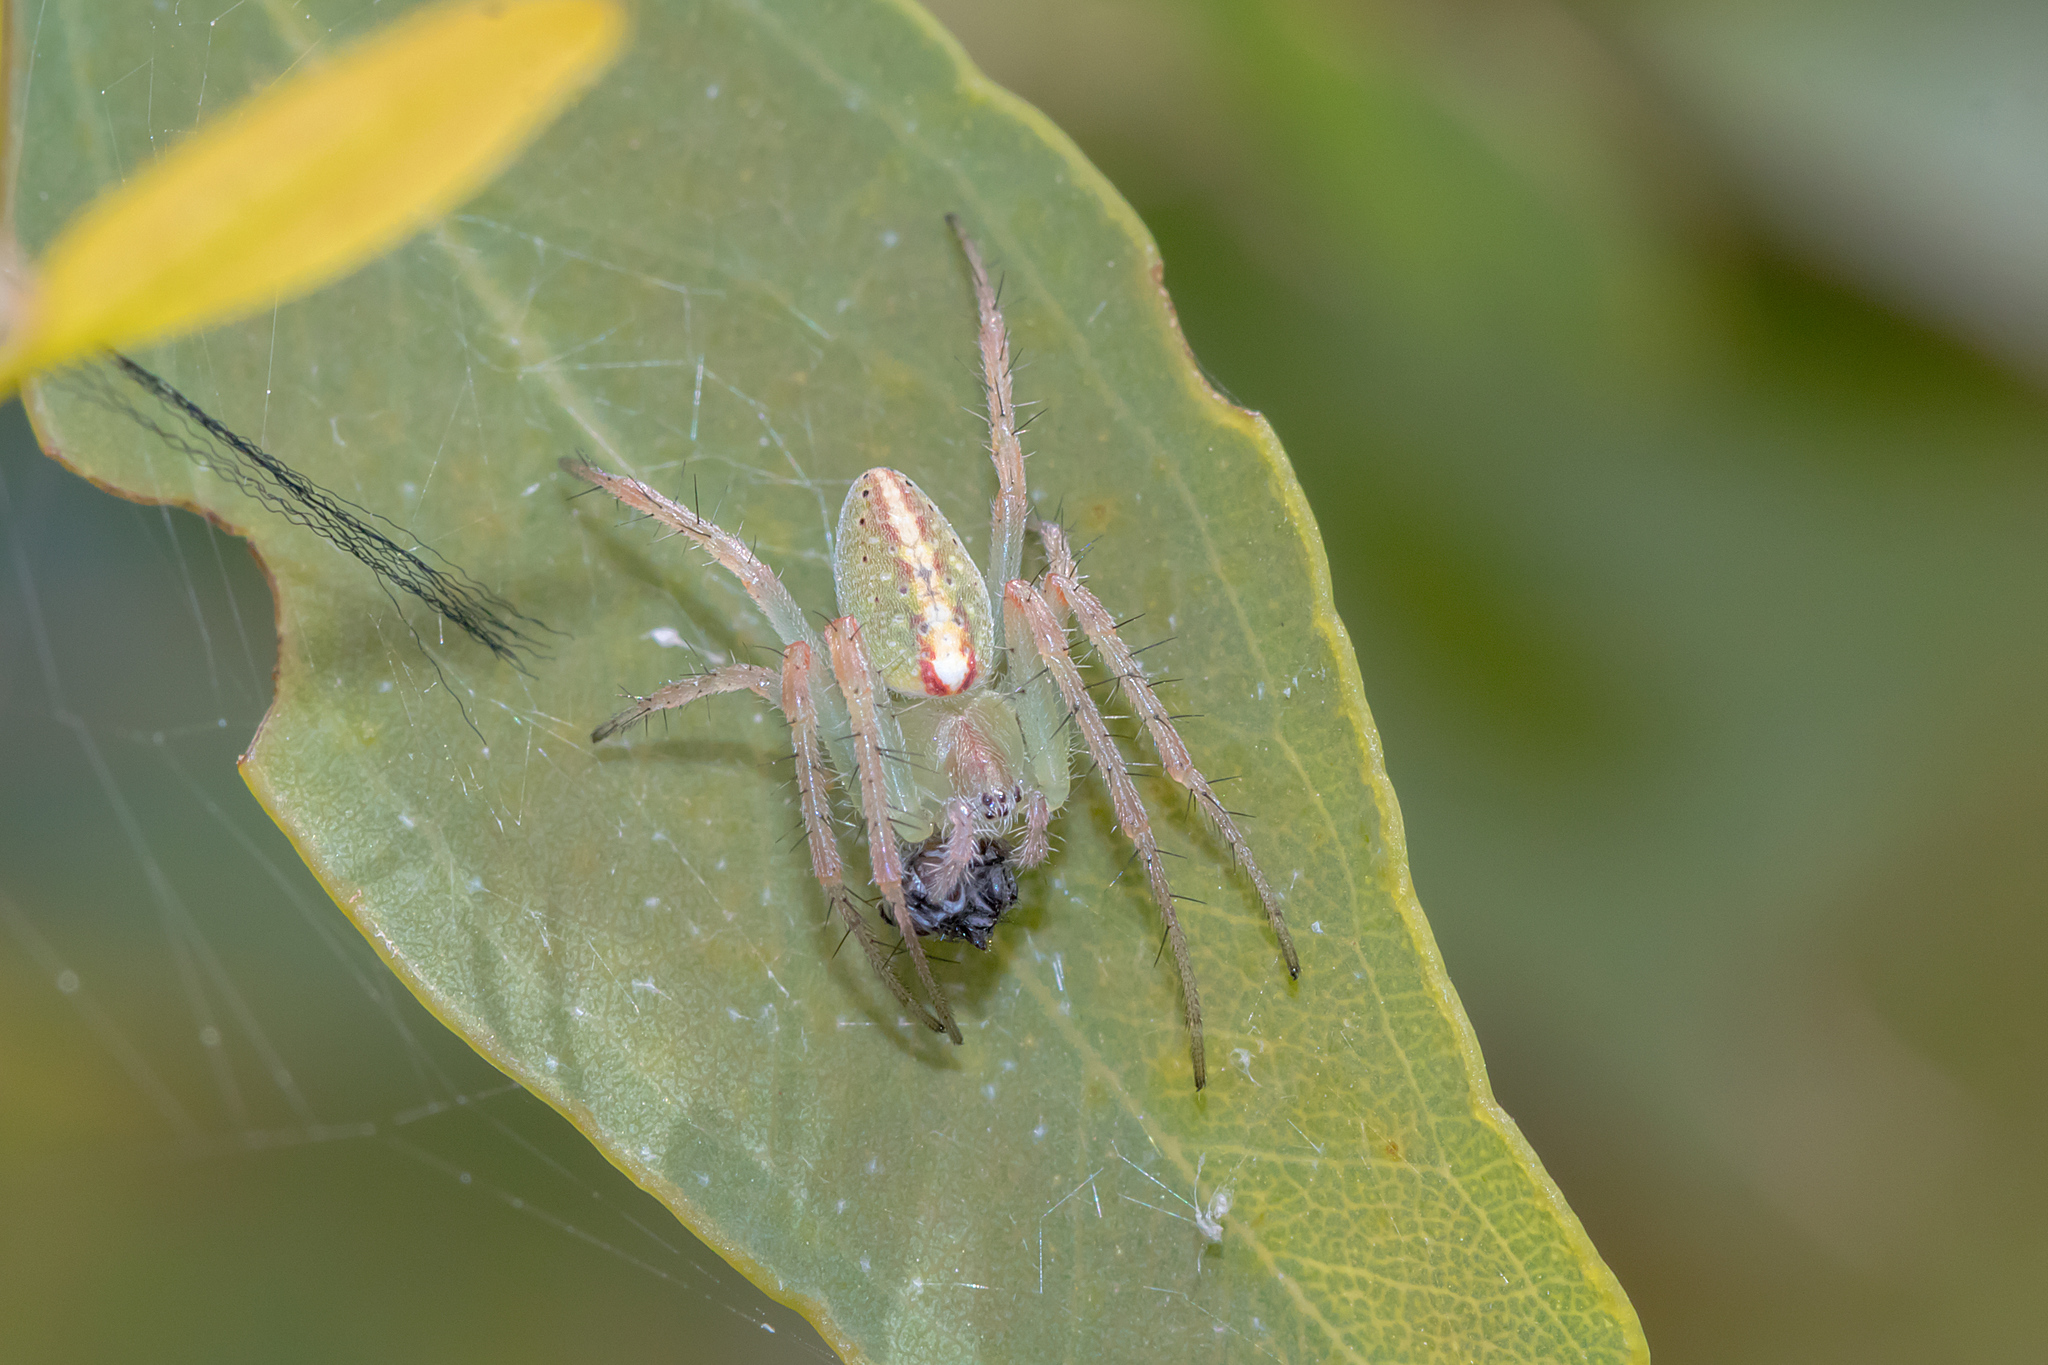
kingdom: Animalia
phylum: Arthropoda
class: Arachnida
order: Araneae
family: Araneidae
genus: Araneus
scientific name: Araneus talipedatus
